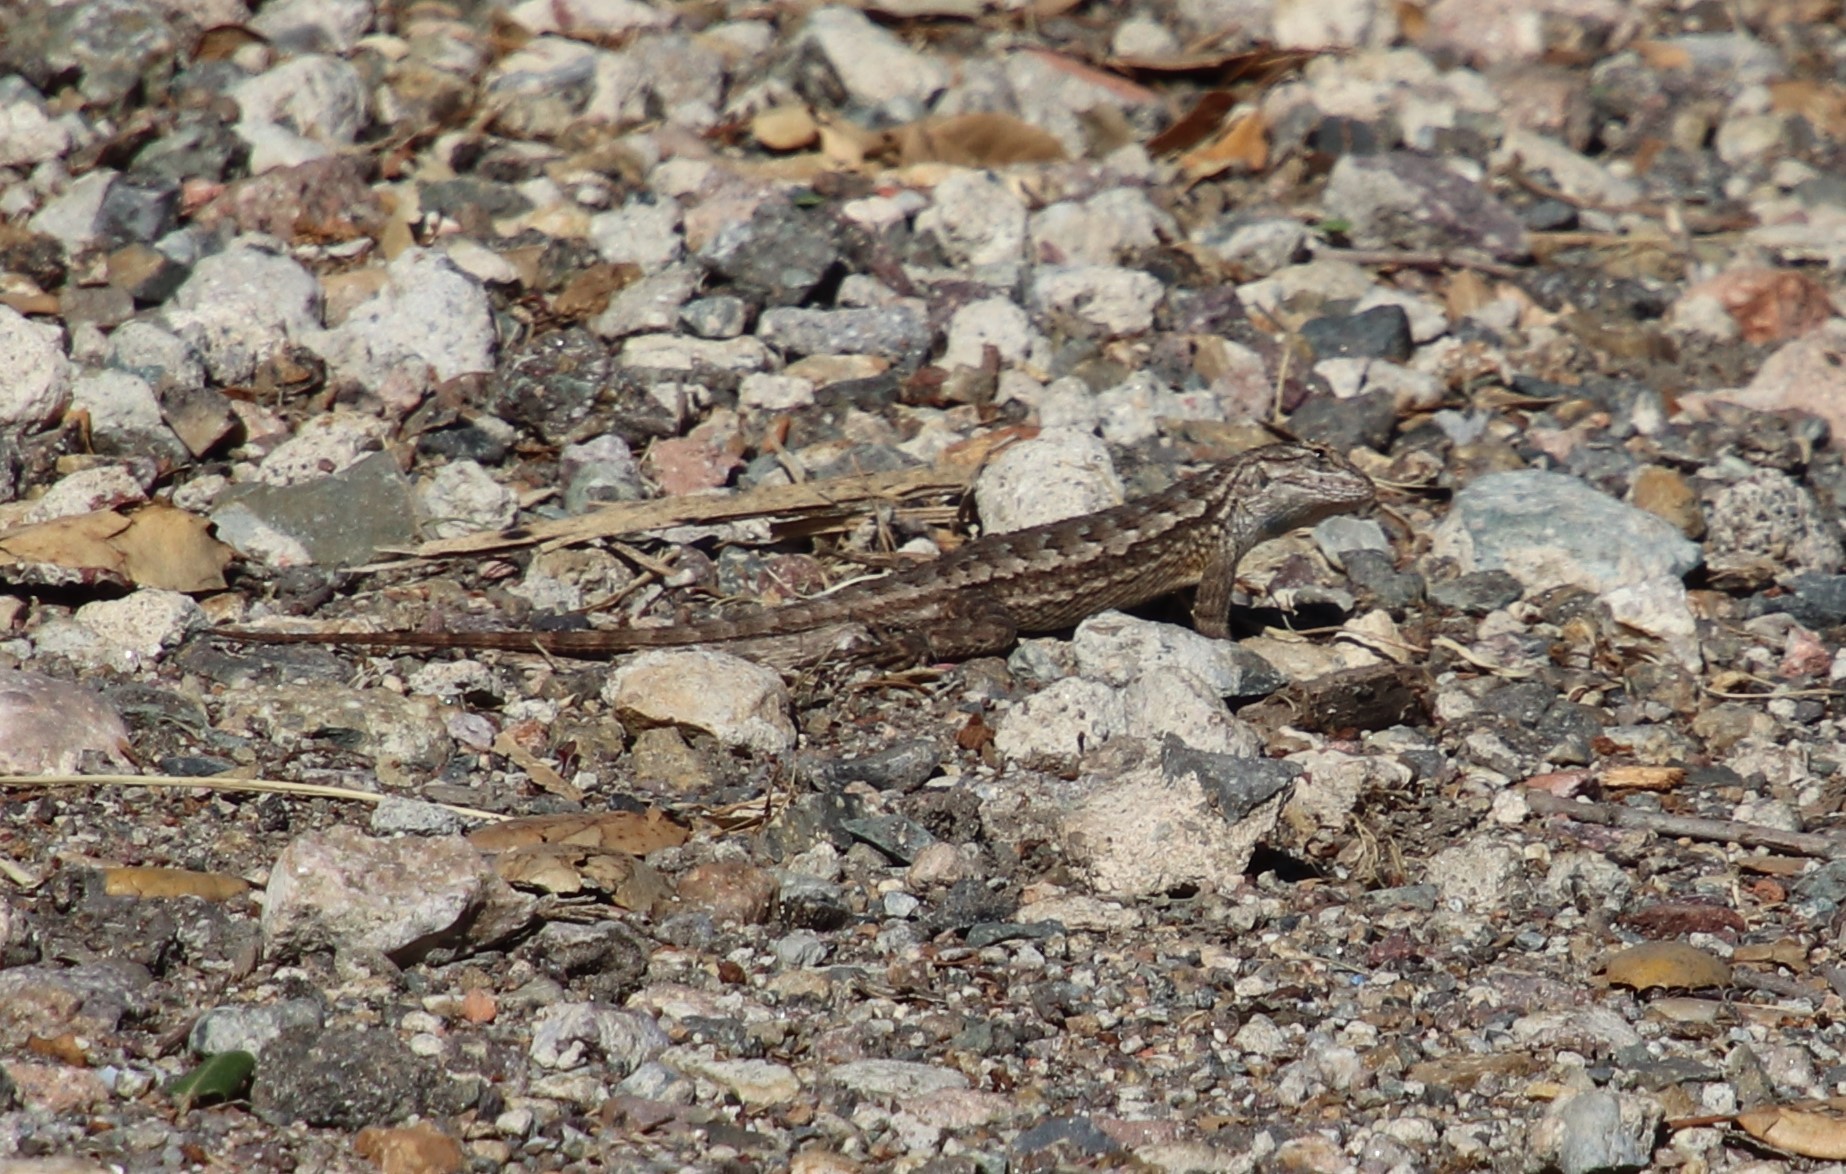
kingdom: Animalia
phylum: Chordata
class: Squamata
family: Phrynosomatidae
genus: Sceloporus
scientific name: Sceloporus occidentalis
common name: Western fence lizard
